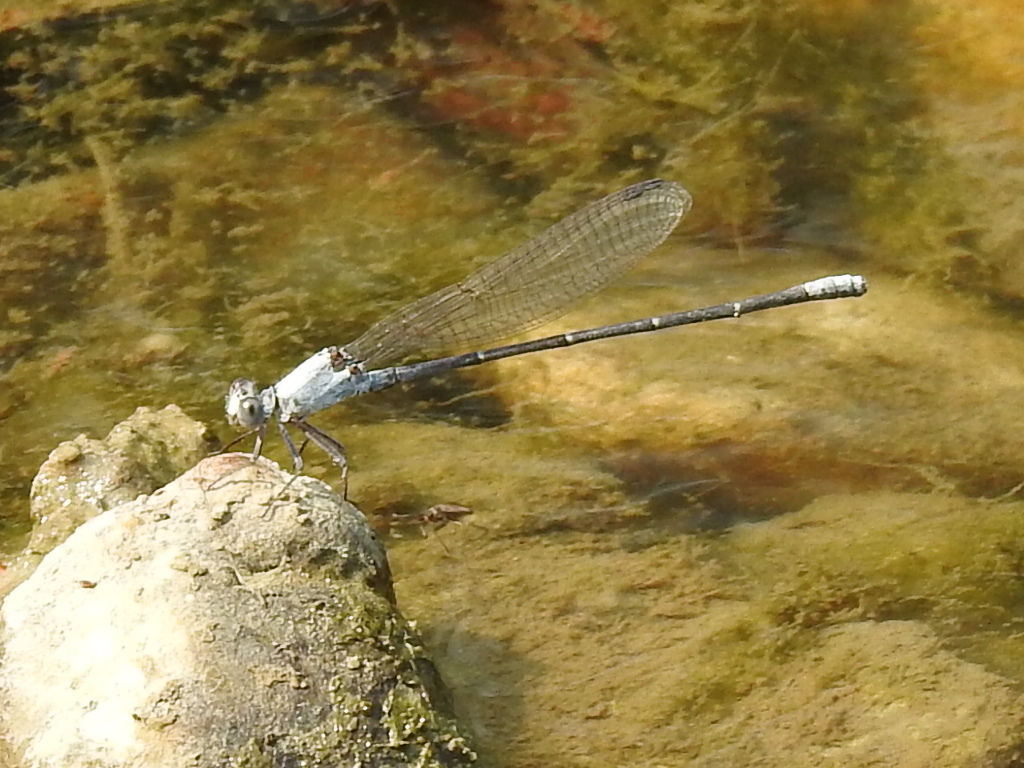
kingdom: Animalia
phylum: Arthropoda
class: Insecta
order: Odonata
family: Coenagrionidae
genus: Argia
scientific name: Argia moesta
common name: Powdered dancer
